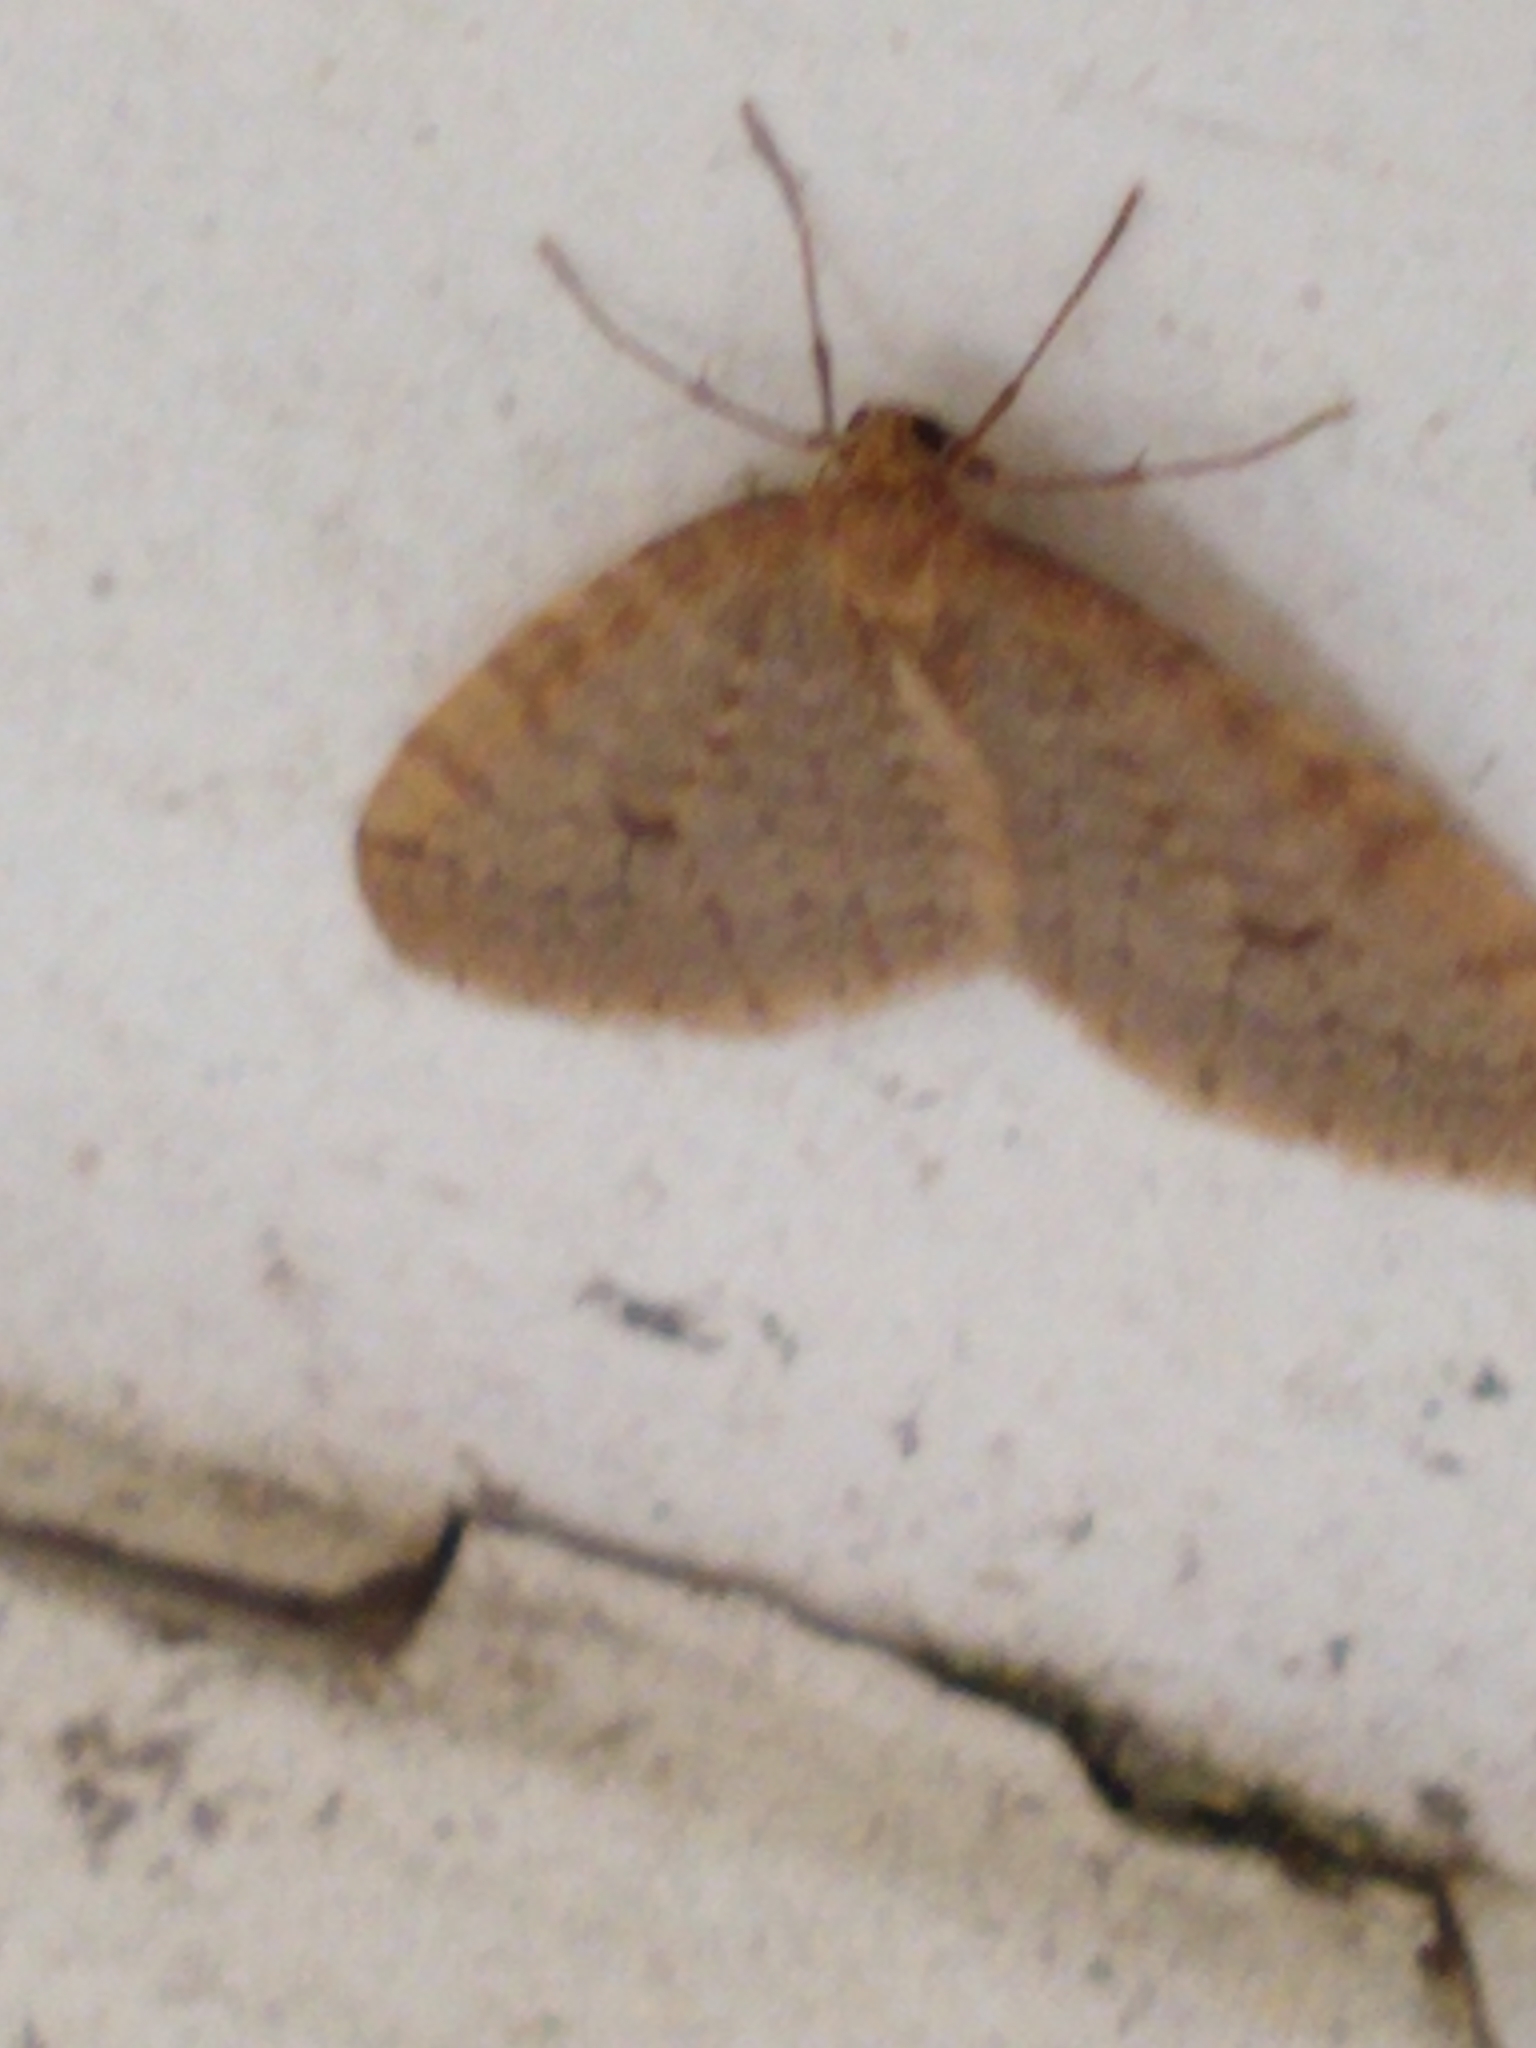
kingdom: Animalia
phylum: Arthropoda
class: Insecta
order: Lepidoptera
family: Geometridae
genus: Operophtera
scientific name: Operophtera bruceata
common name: Bruce spanworm
